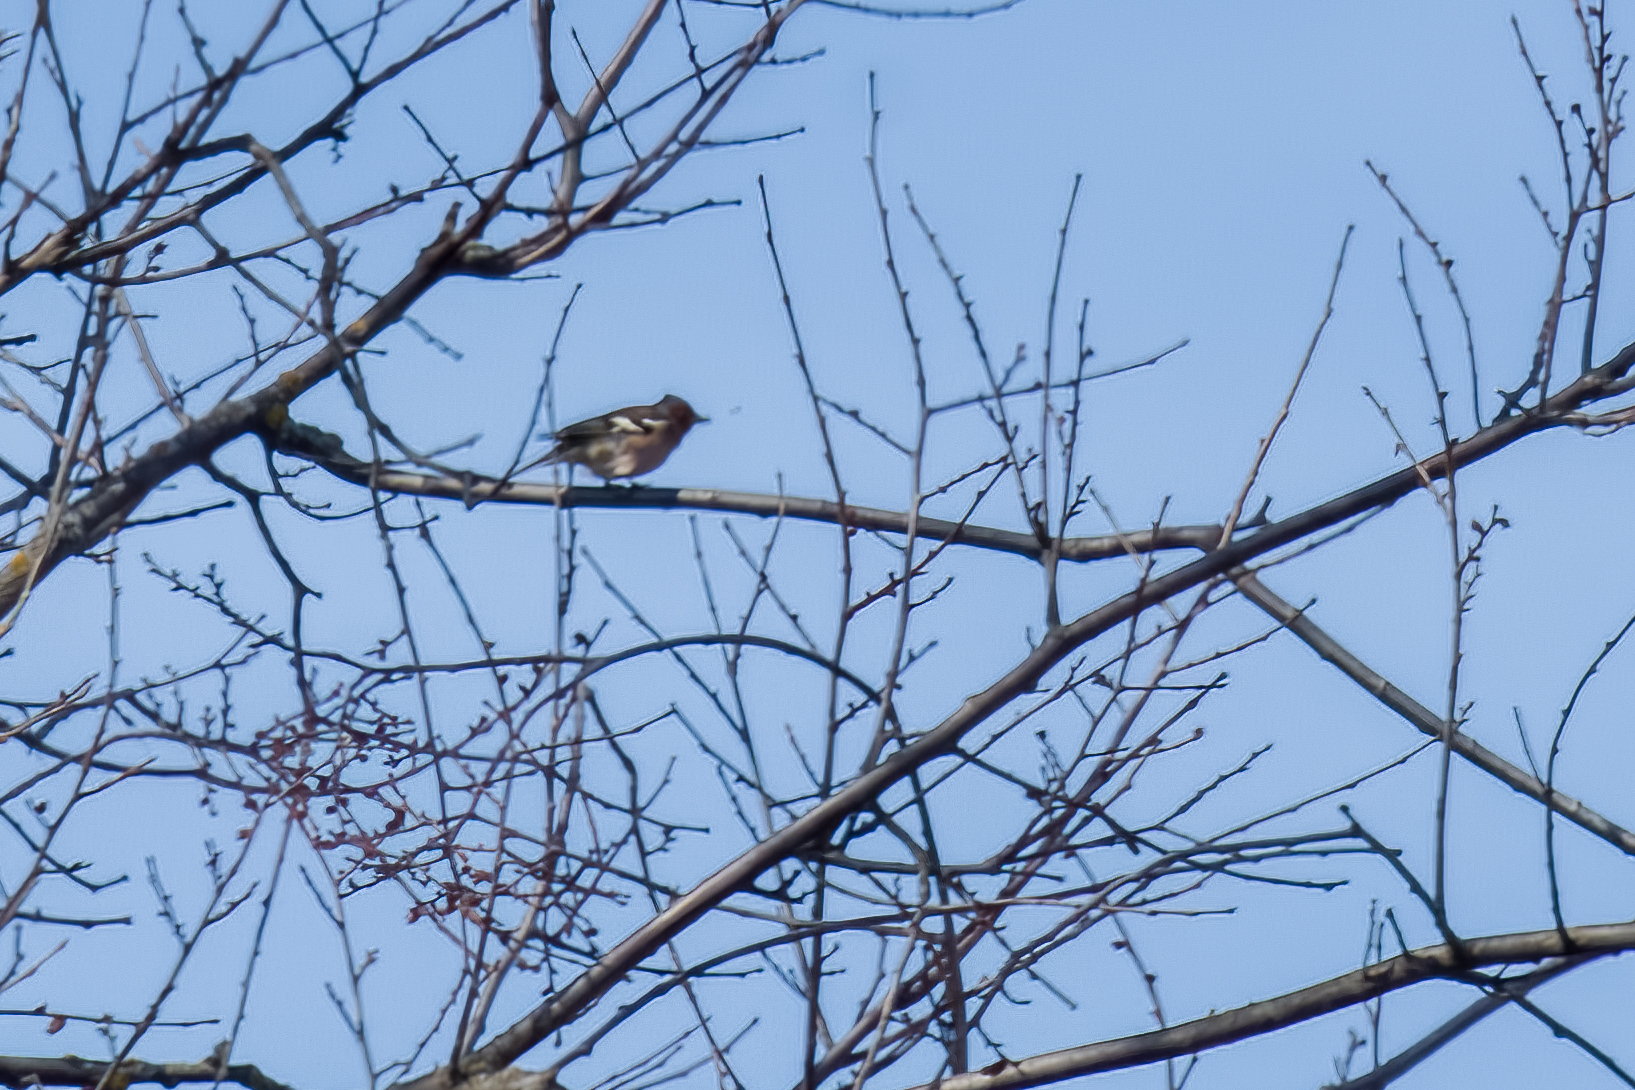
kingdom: Animalia
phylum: Chordata
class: Aves
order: Passeriformes
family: Fringillidae
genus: Fringilla
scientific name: Fringilla coelebs
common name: Common chaffinch
